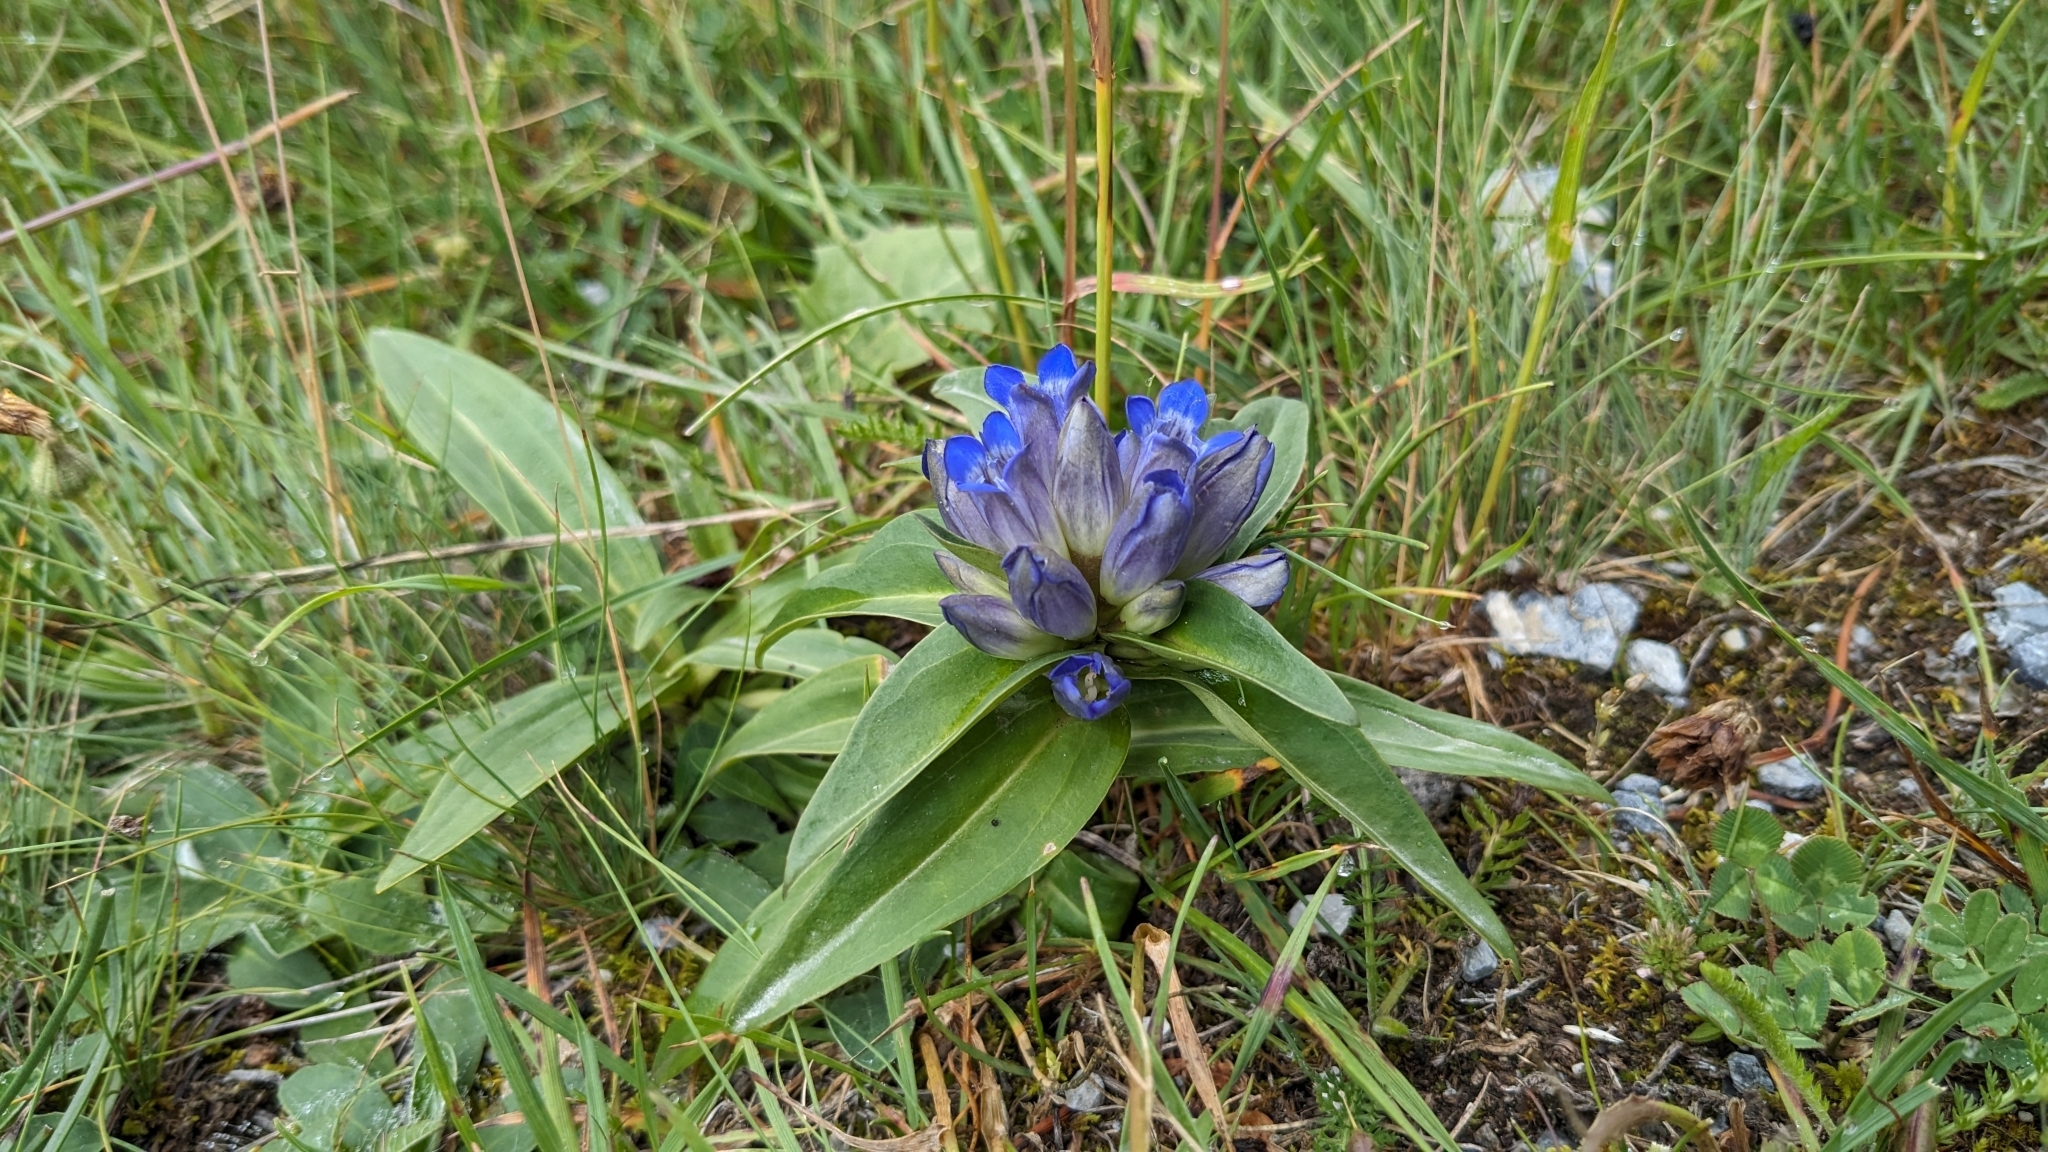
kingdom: Plantae
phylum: Tracheophyta
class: Magnoliopsida
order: Gentianales
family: Gentianaceae
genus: Gentiana
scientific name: Gentiana cruciata
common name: Cross gentian
